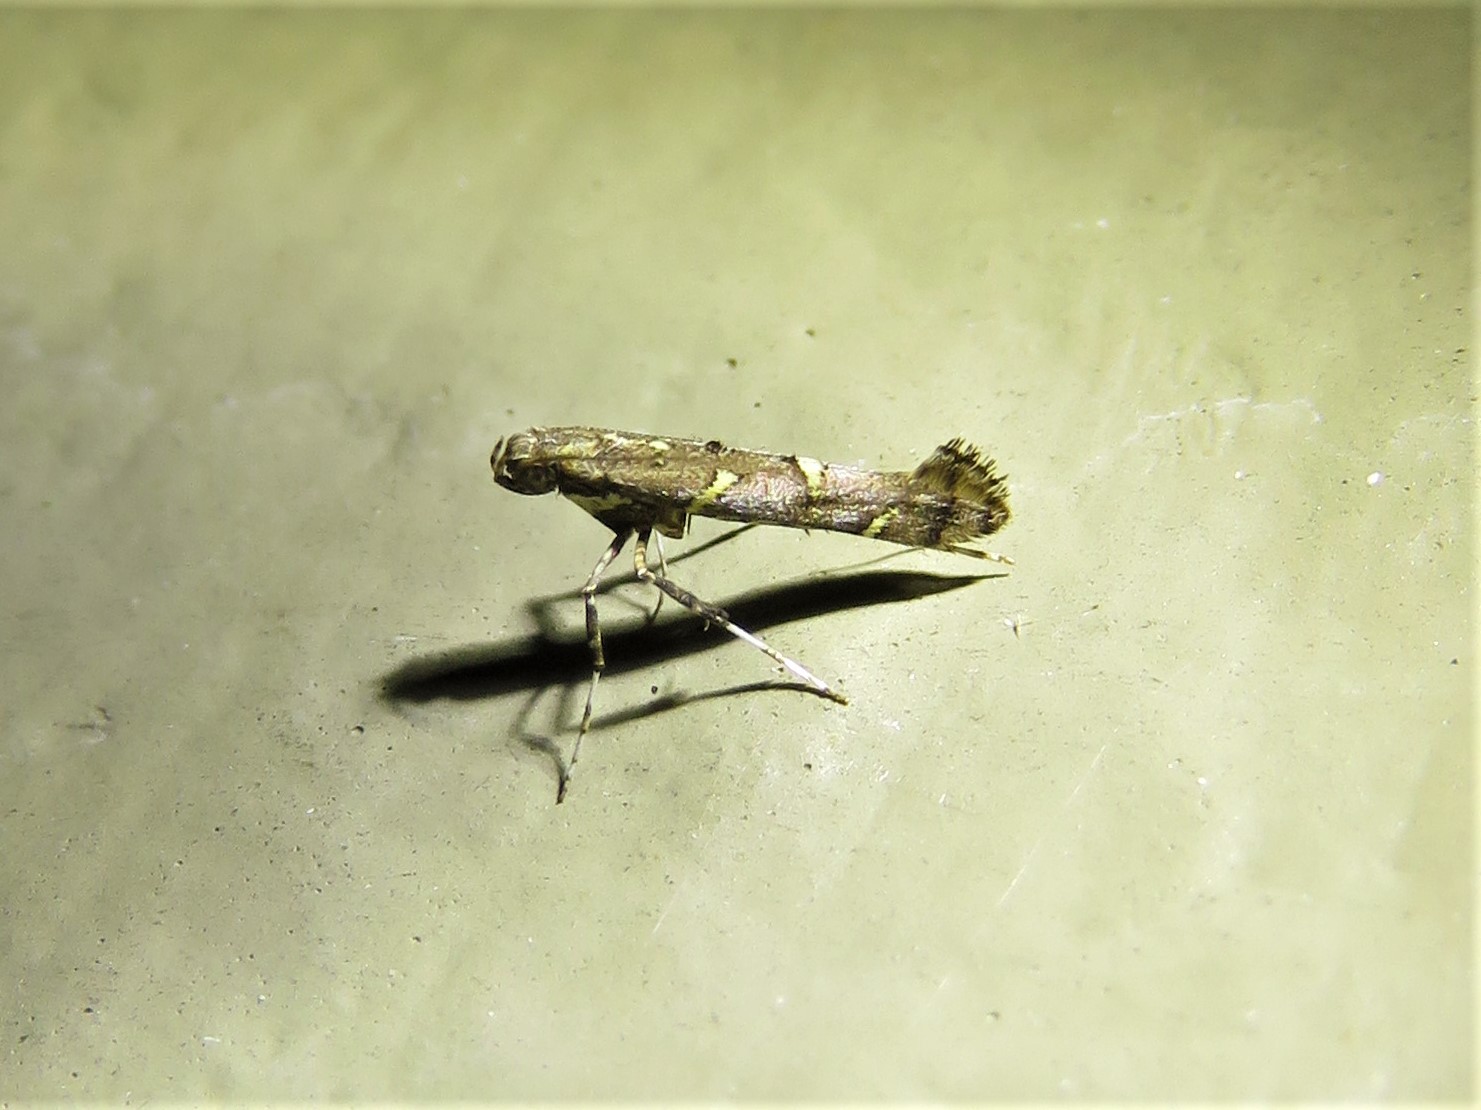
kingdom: Animalia
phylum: Arthropoda
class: Insecta
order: Lepidoptera
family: Gracillariidae
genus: Caloptilia
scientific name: Caloptilia triadicae
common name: Tallow leaf roller
